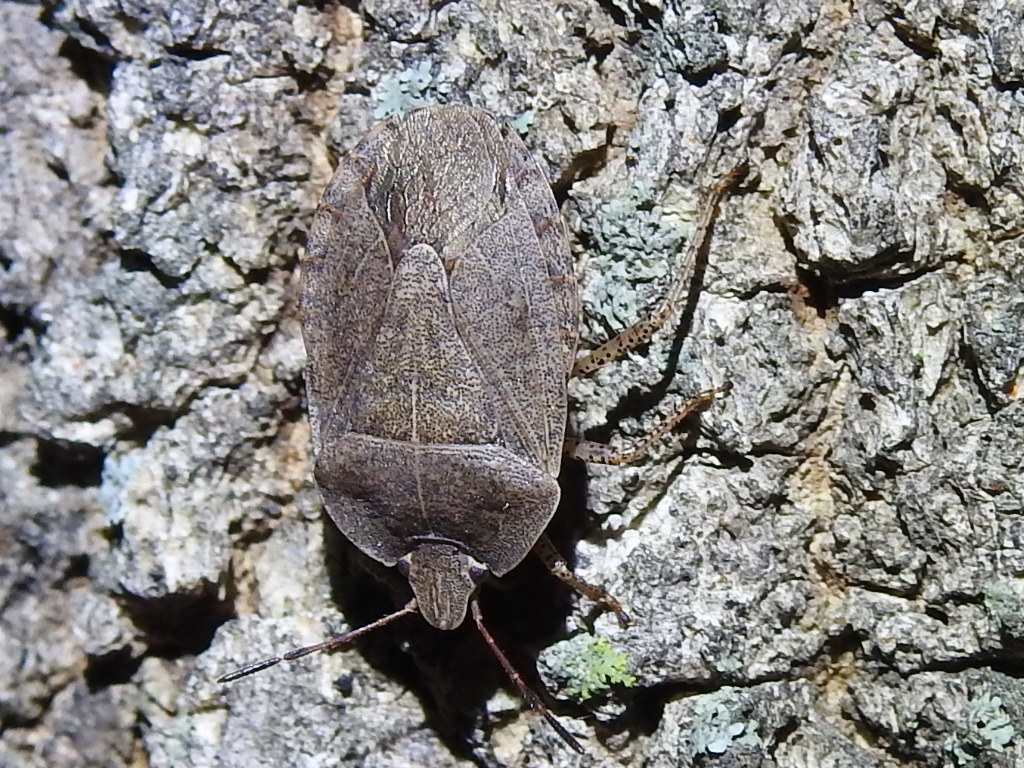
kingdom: Animalia
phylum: Arthropoda
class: Insecta
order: Hemiptera
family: Pentatomidae
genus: Menecles
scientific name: Menecles insertus
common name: Elf shoe stink bug
